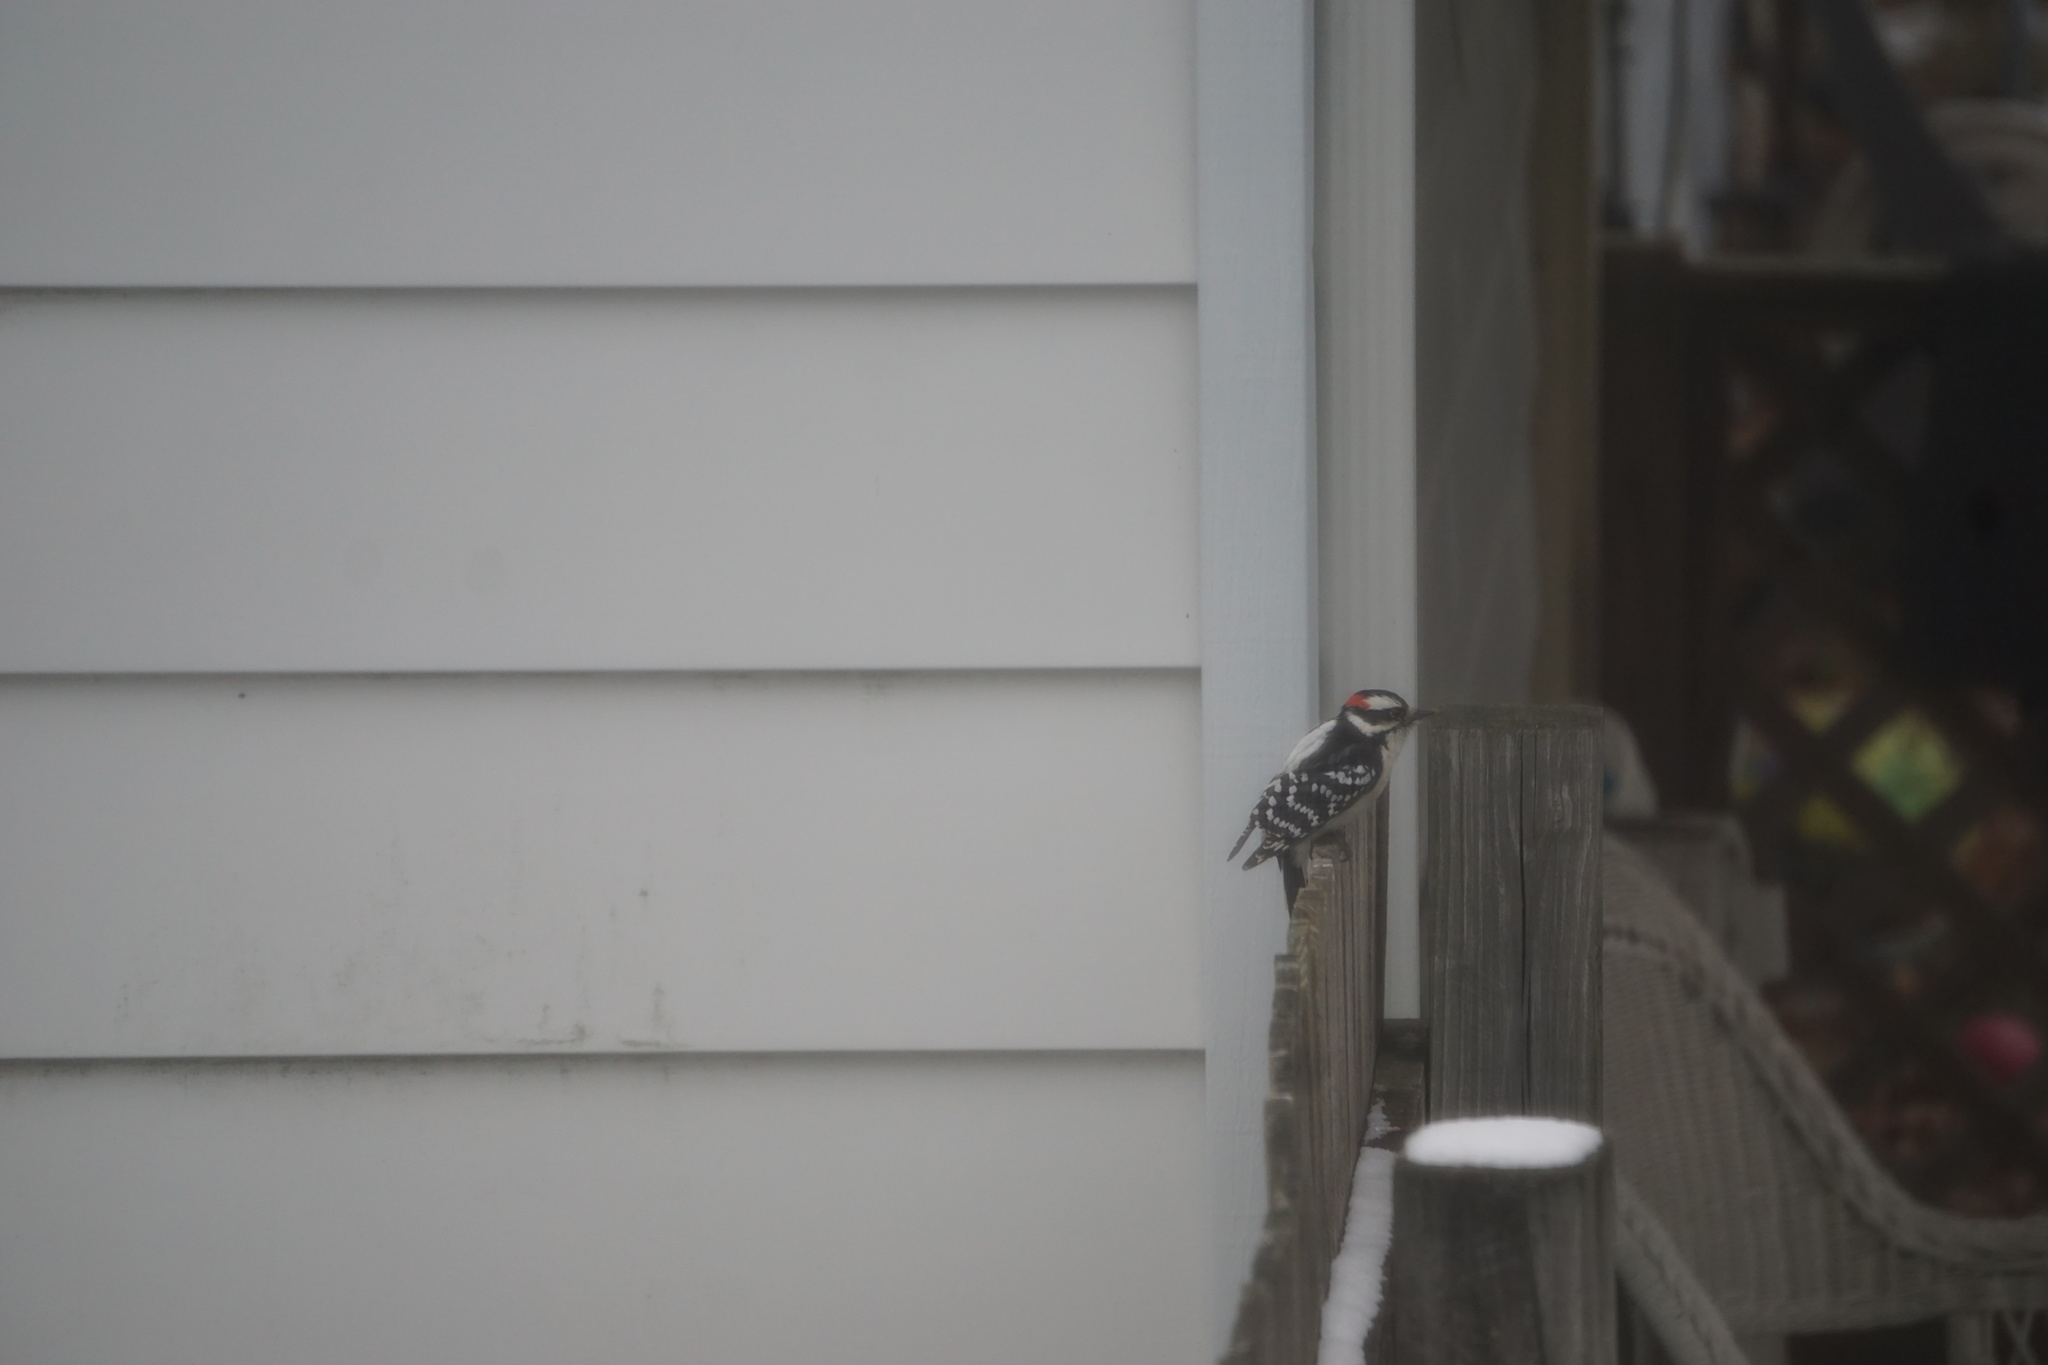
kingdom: Animalia
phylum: Chordata
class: Aves
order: Piciformes
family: Picidae
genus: Dryobates
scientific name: Dryobates pubescens
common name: Downy woodpecker
